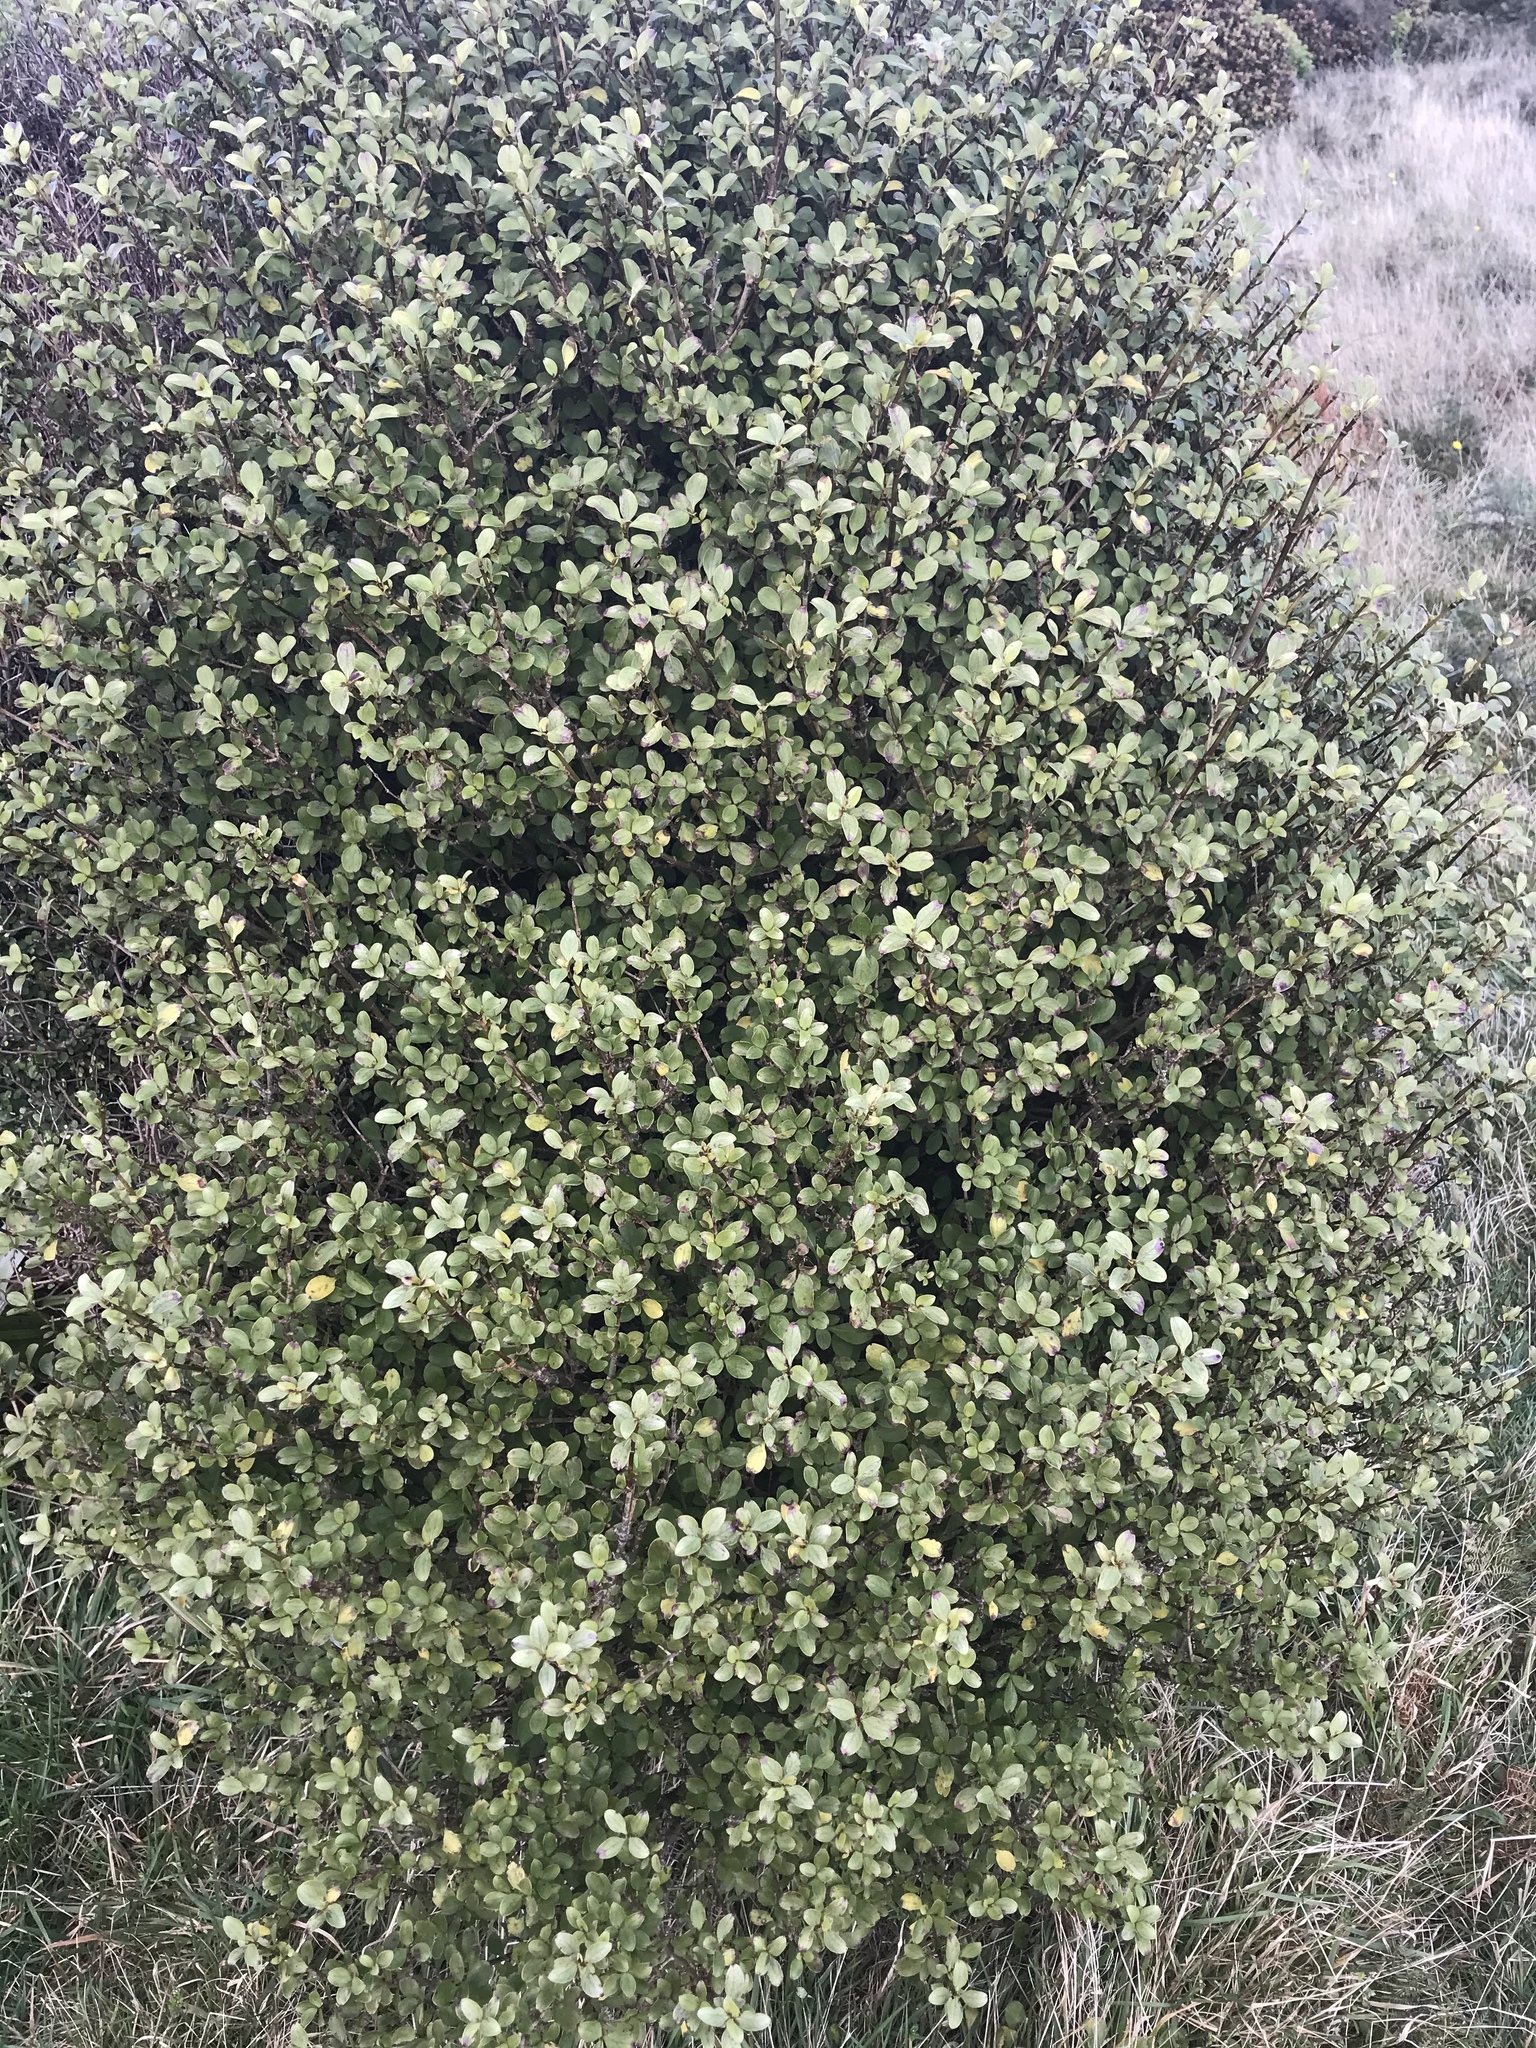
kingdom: Plantae
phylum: Tracheophyta
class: Magnoliopsida
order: Gentianales
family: Rubiaceae
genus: Coprosma
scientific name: Coprosma foetidissima
